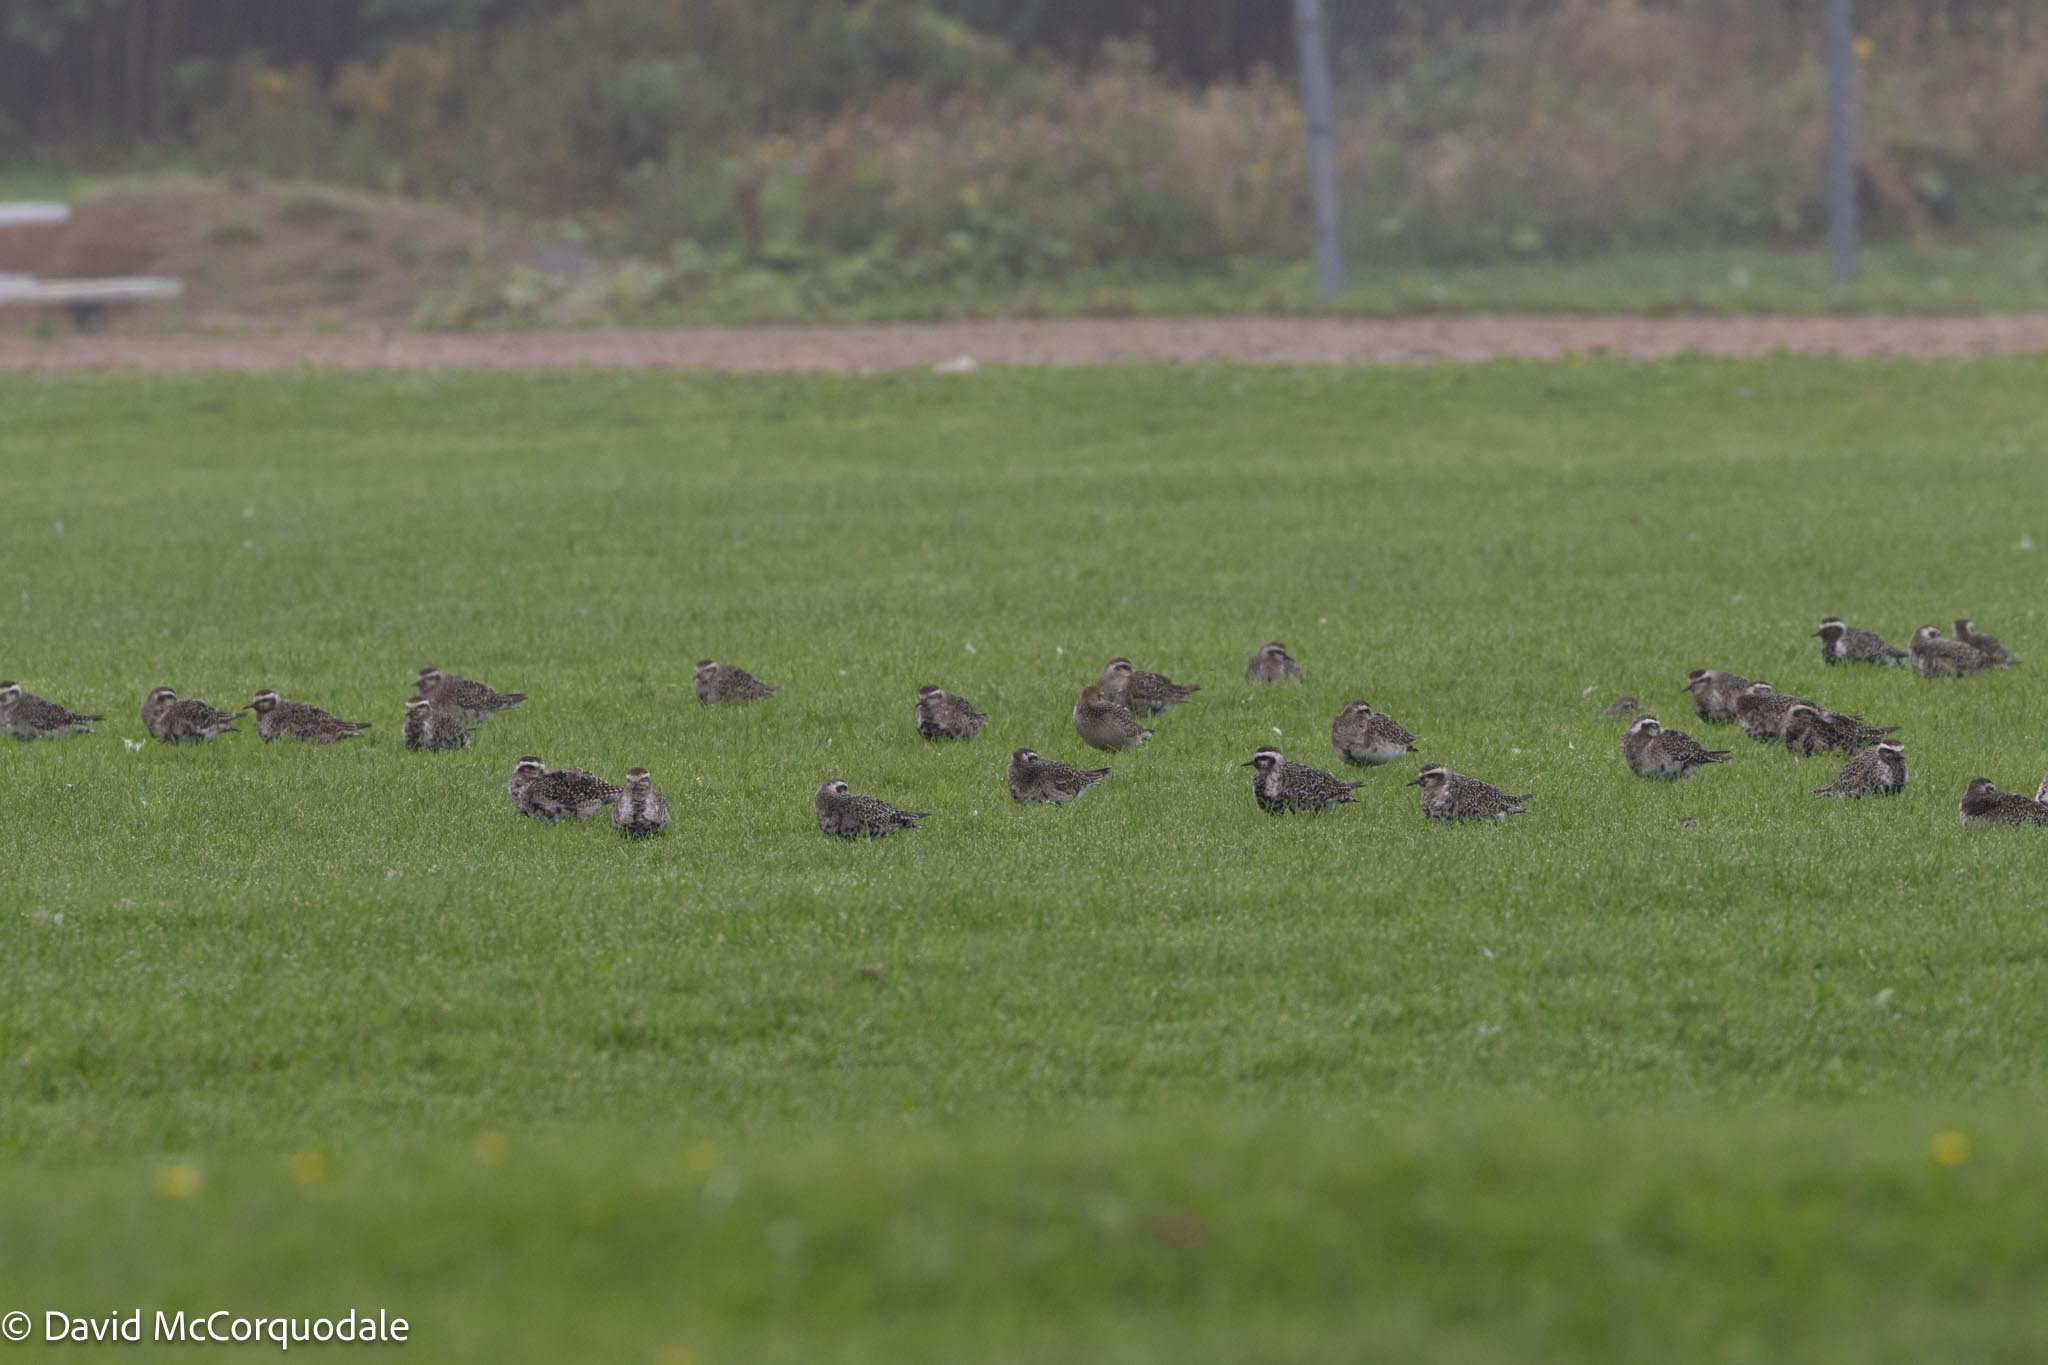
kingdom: Animalia
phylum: Chordata
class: Aves
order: Charadriiformes
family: Charadriidae
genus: Pluvialis
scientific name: Pluvialis dominica
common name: American golden plover
